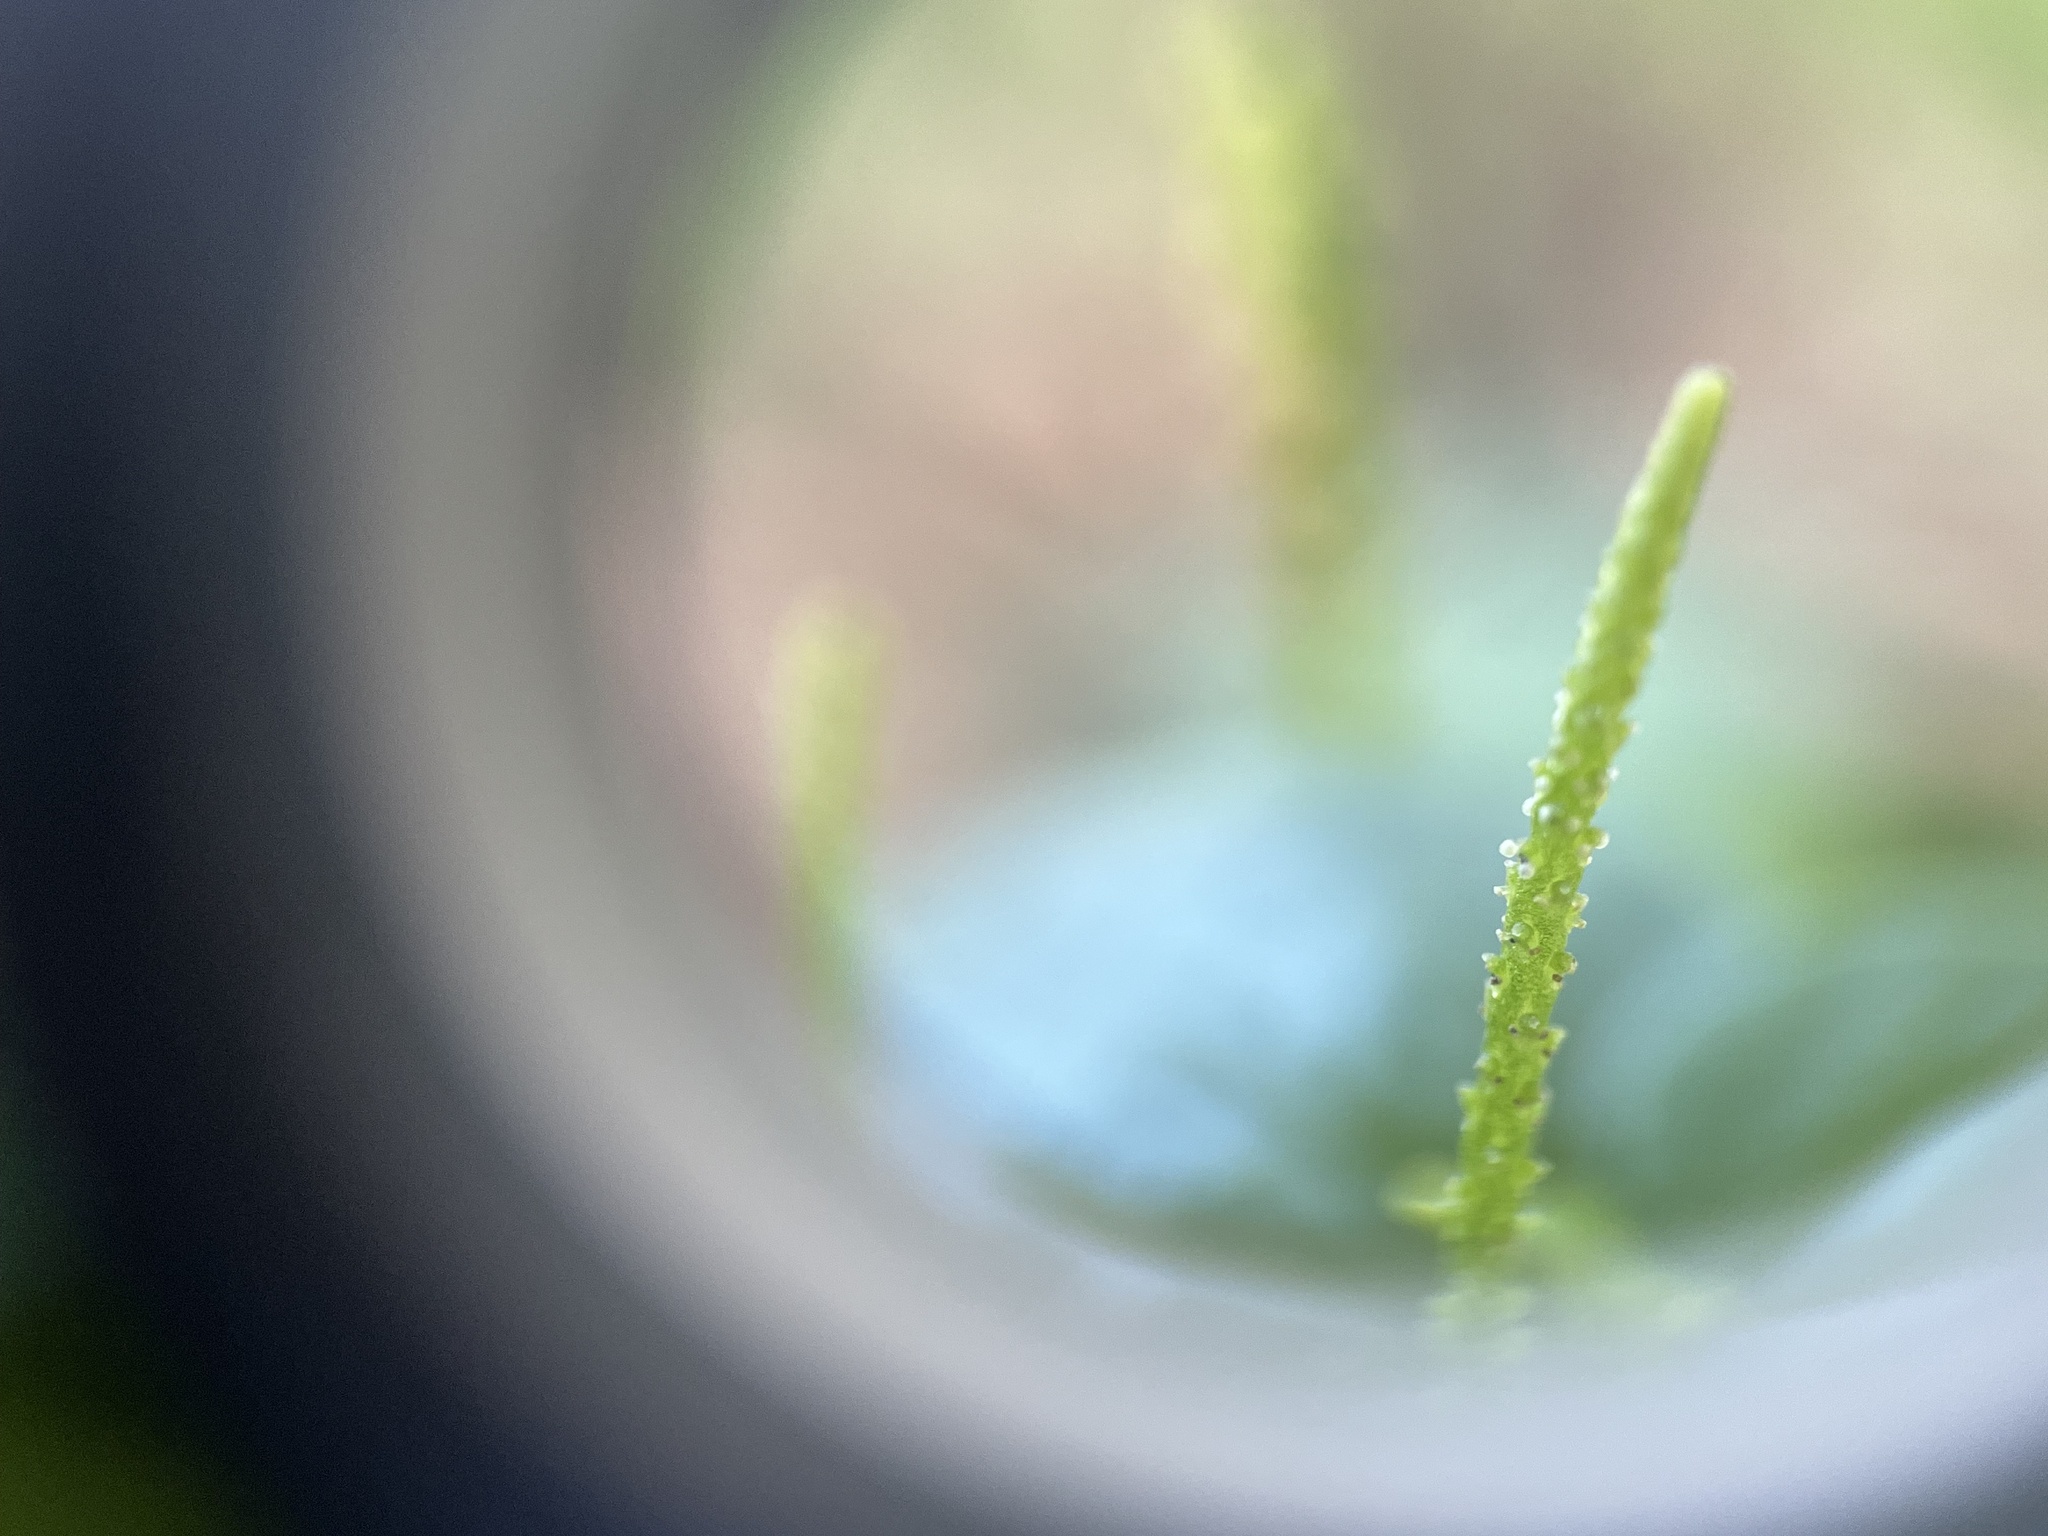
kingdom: Plantae
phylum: Tracheophyta
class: Magnoliopsida
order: Piperales
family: Piperaceae
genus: Peperomia
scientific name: Peperomia pellucida
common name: Man to man
